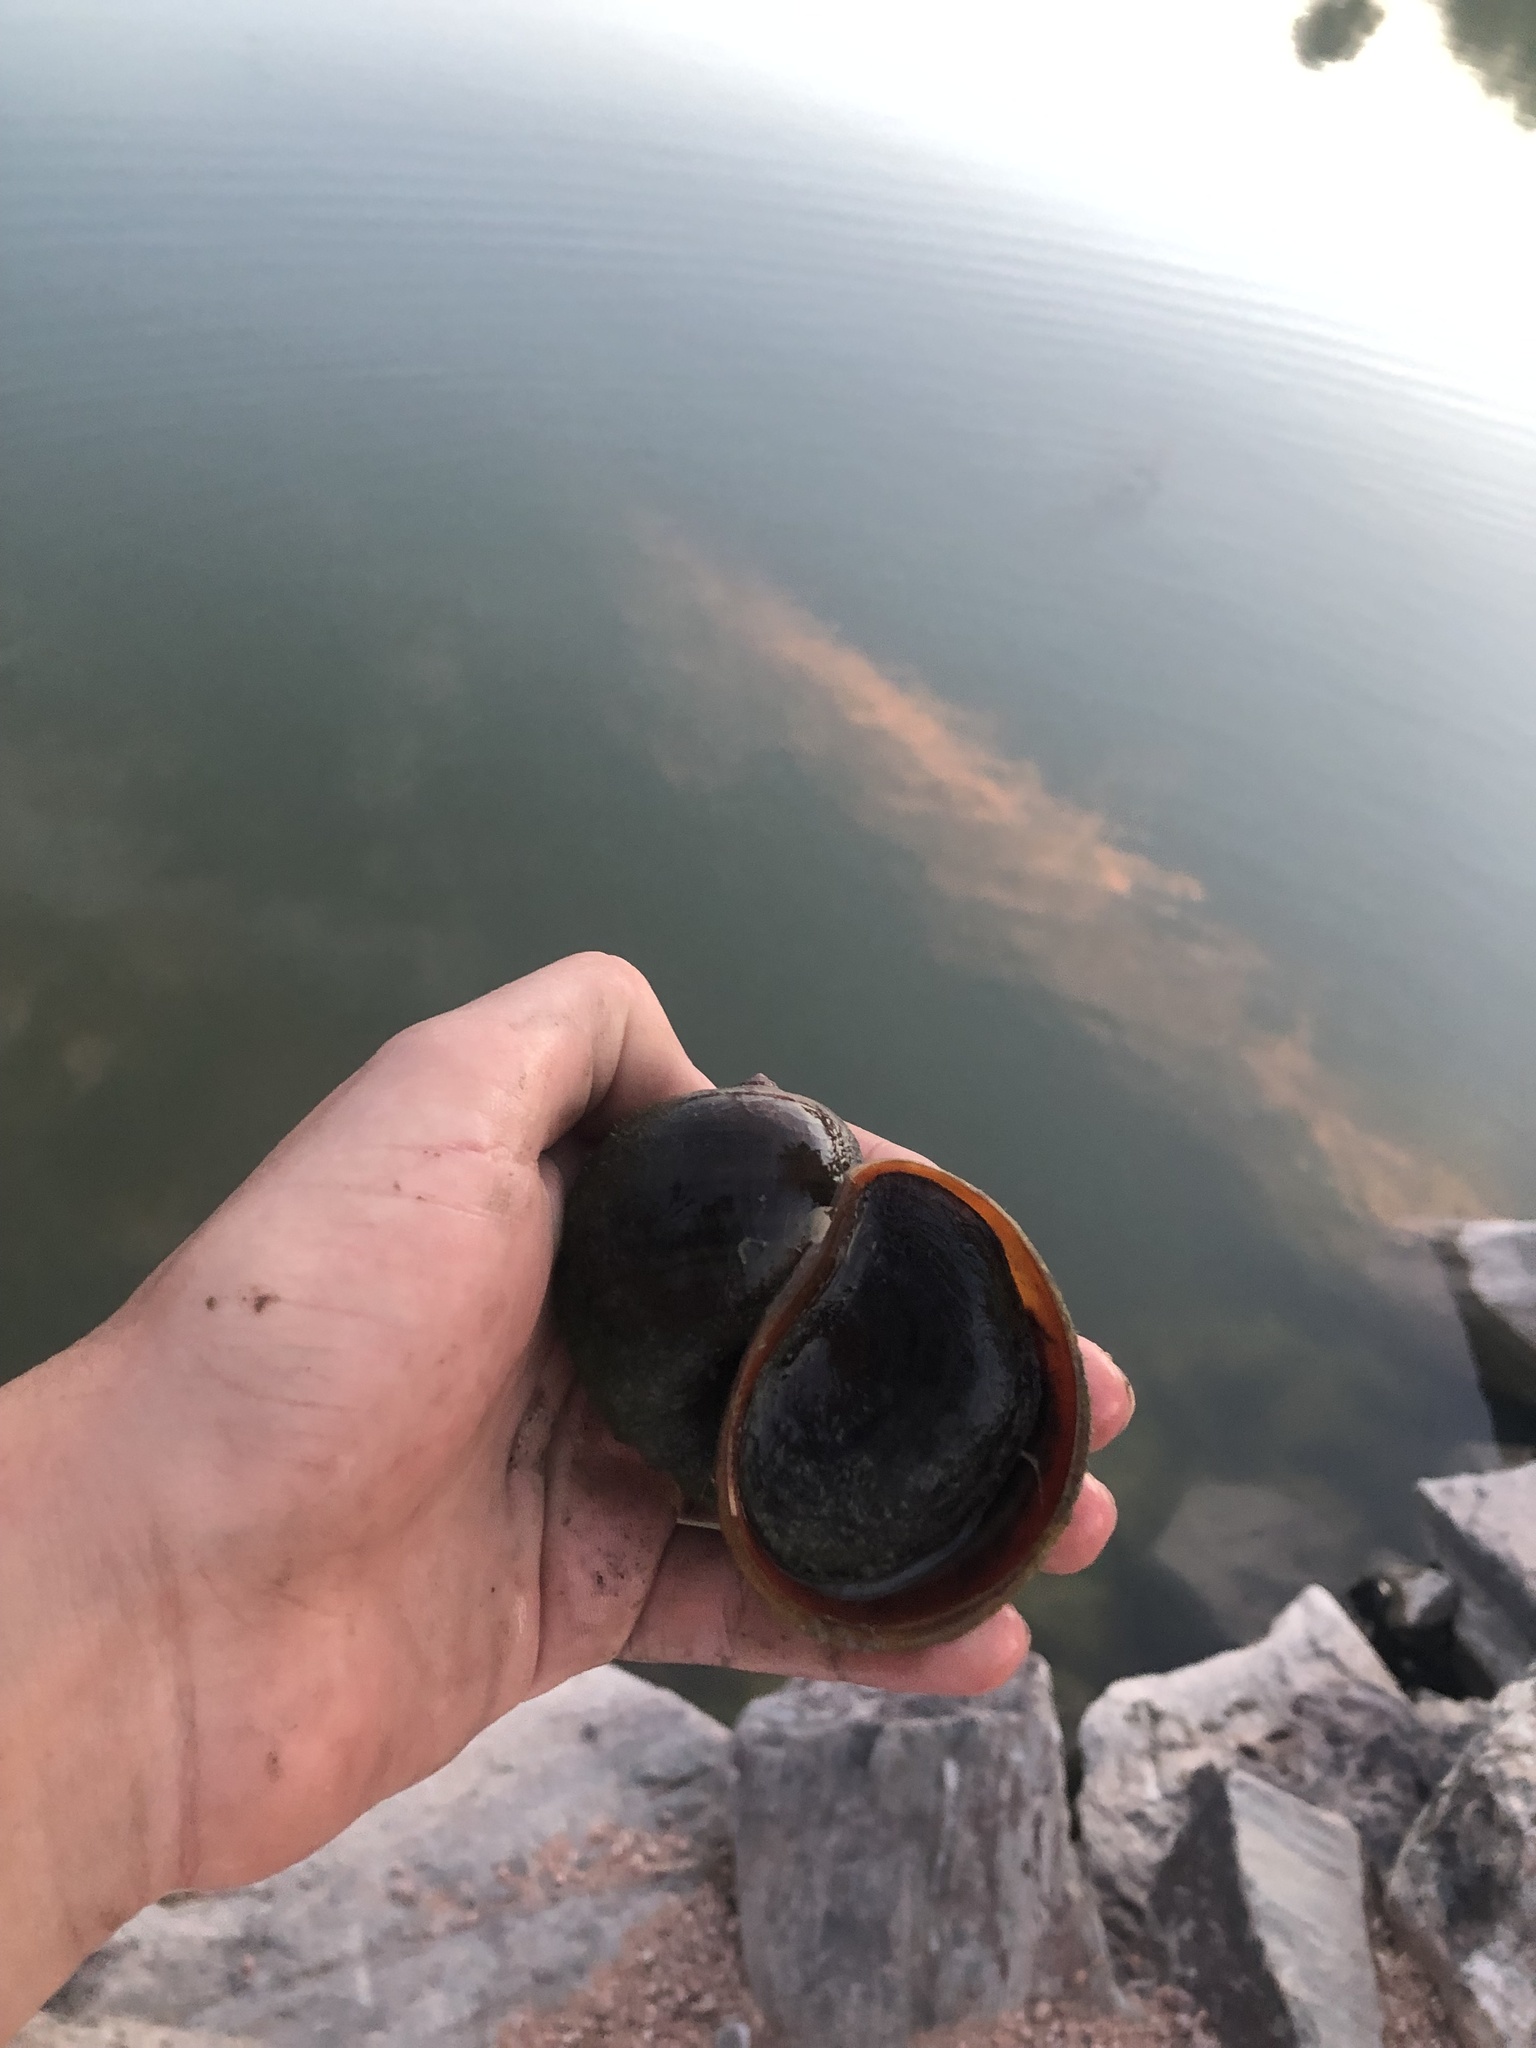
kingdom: Animalia
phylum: Mollusca
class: Gastropoda
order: Architaenioglossa
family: Ampullariidae
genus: Pomacea
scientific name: Pomacea maculata
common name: Giant applesnail
